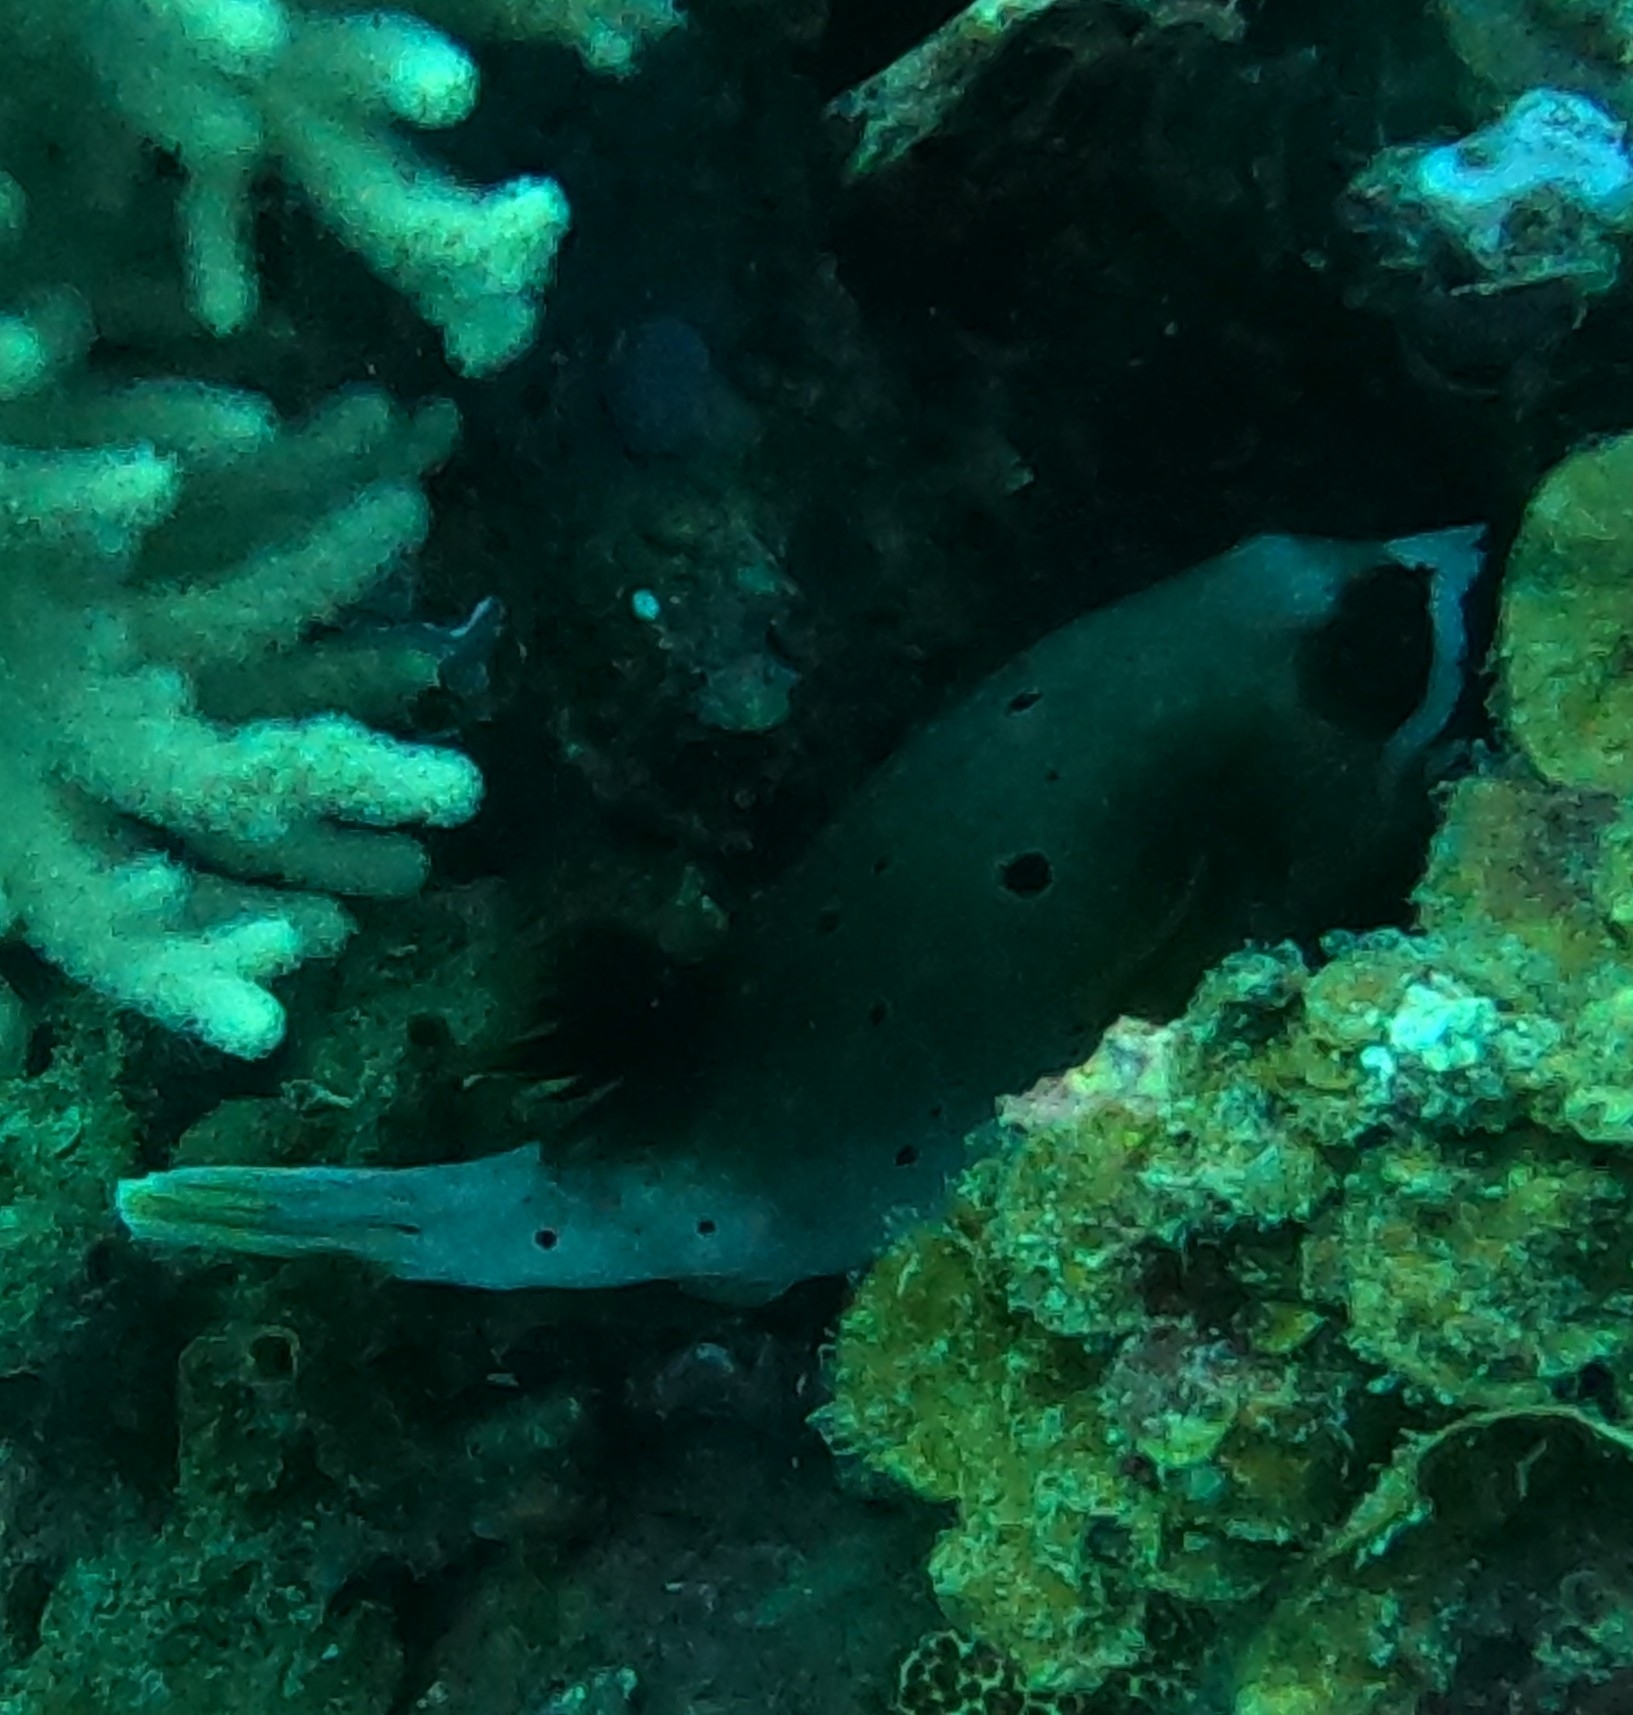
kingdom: Animalia
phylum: Chordata
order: Tetraodontiformes
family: Tetraodontidae
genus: Arothron
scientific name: Arothron nigropunctatus
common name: Black spotted blow fish
